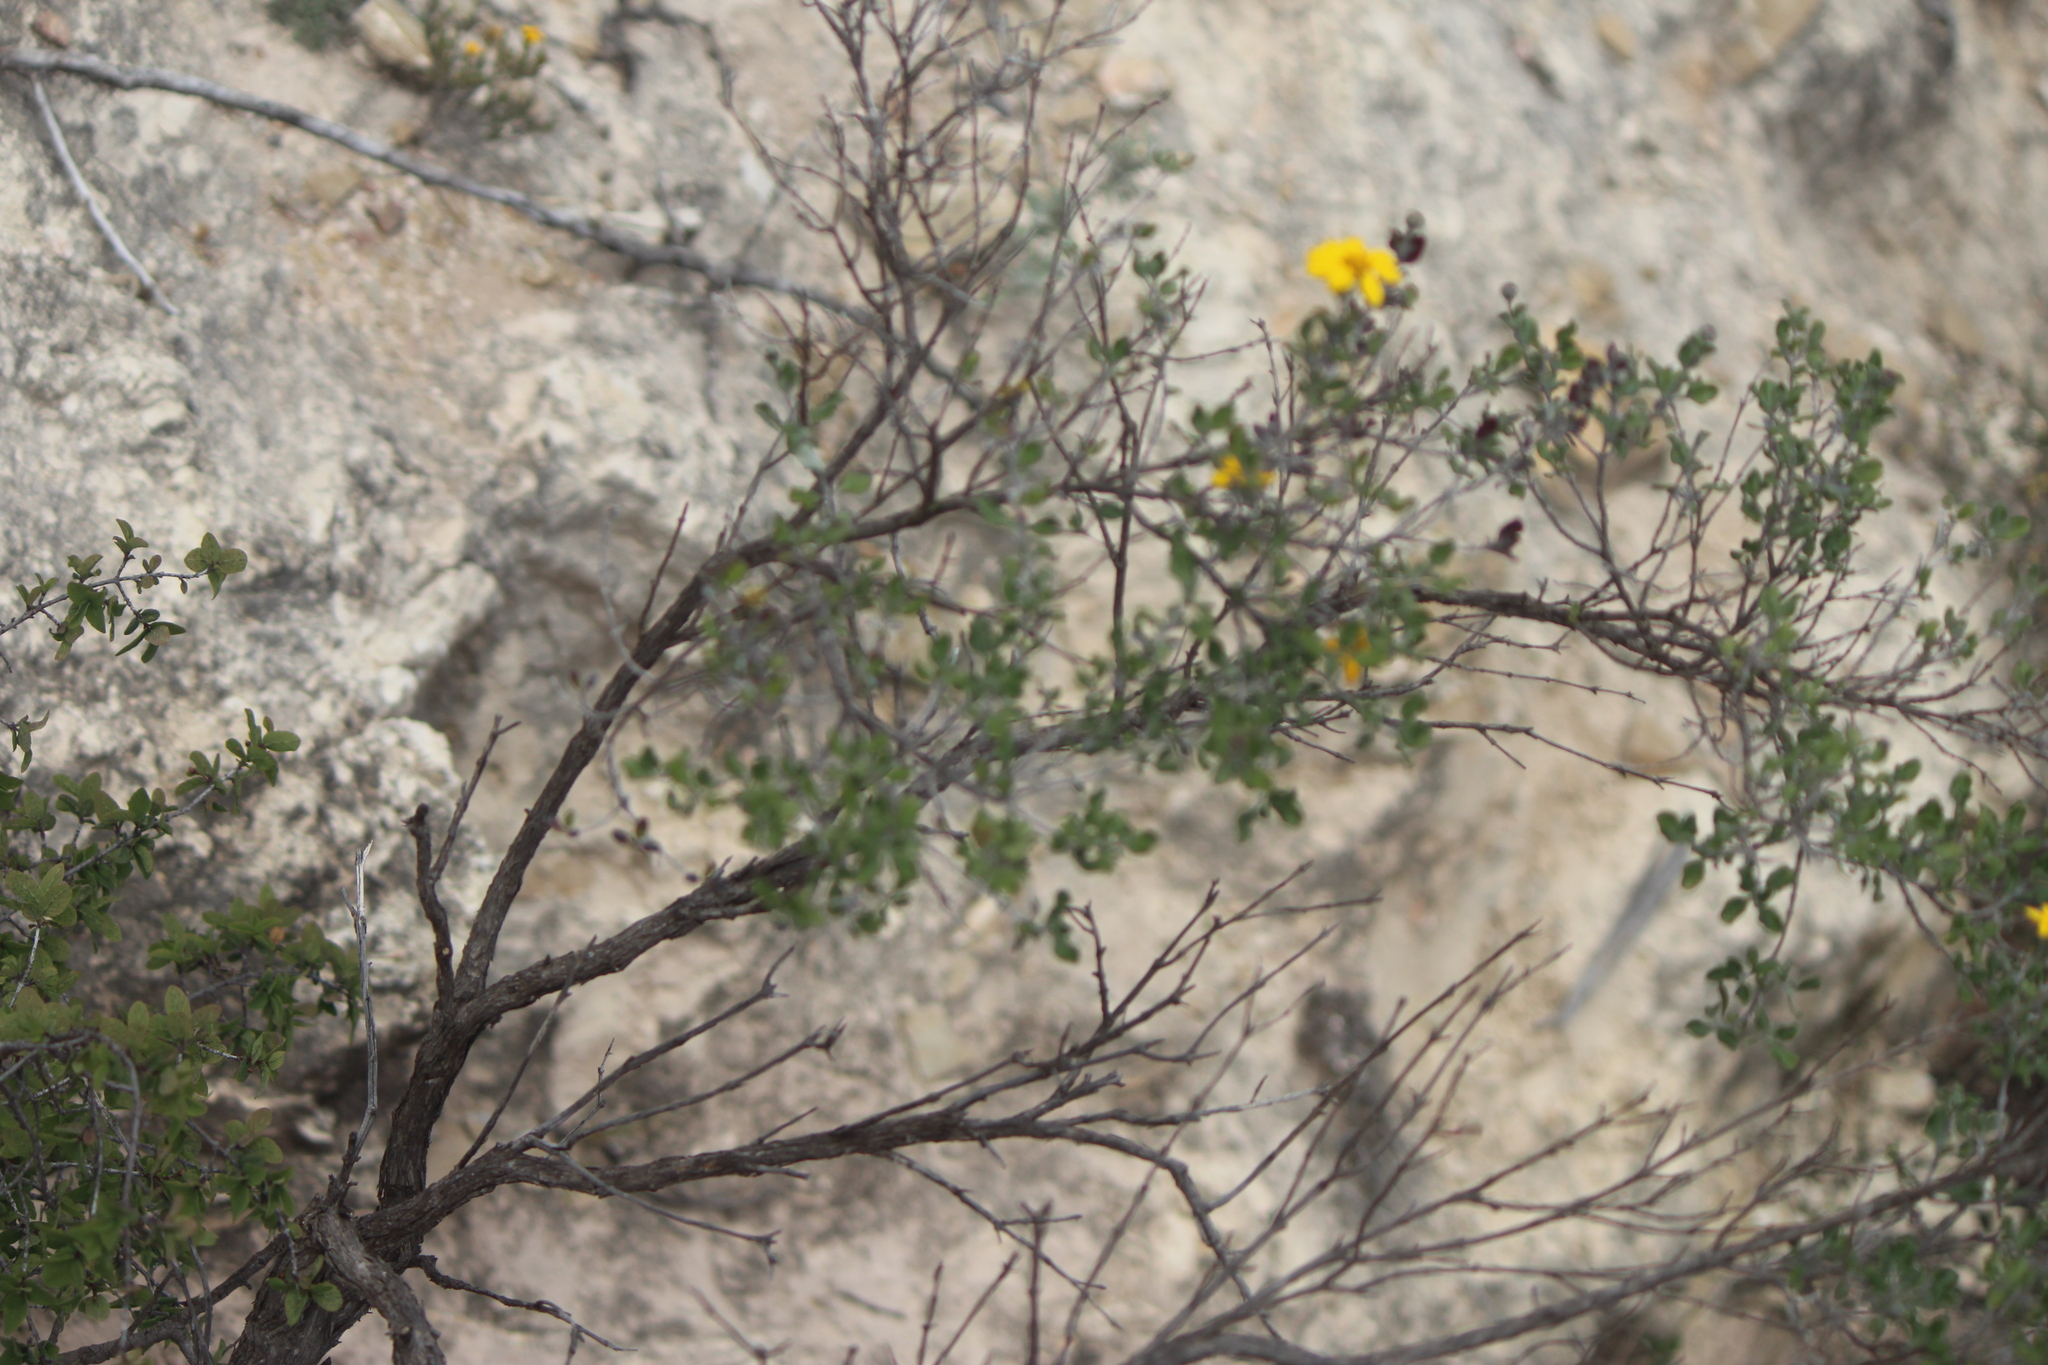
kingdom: Plantae
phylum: Tracheophyta
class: Magnoliopsida
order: Asterales
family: Asteraceae
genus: Calanticaria
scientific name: Calanticaria bicolor
